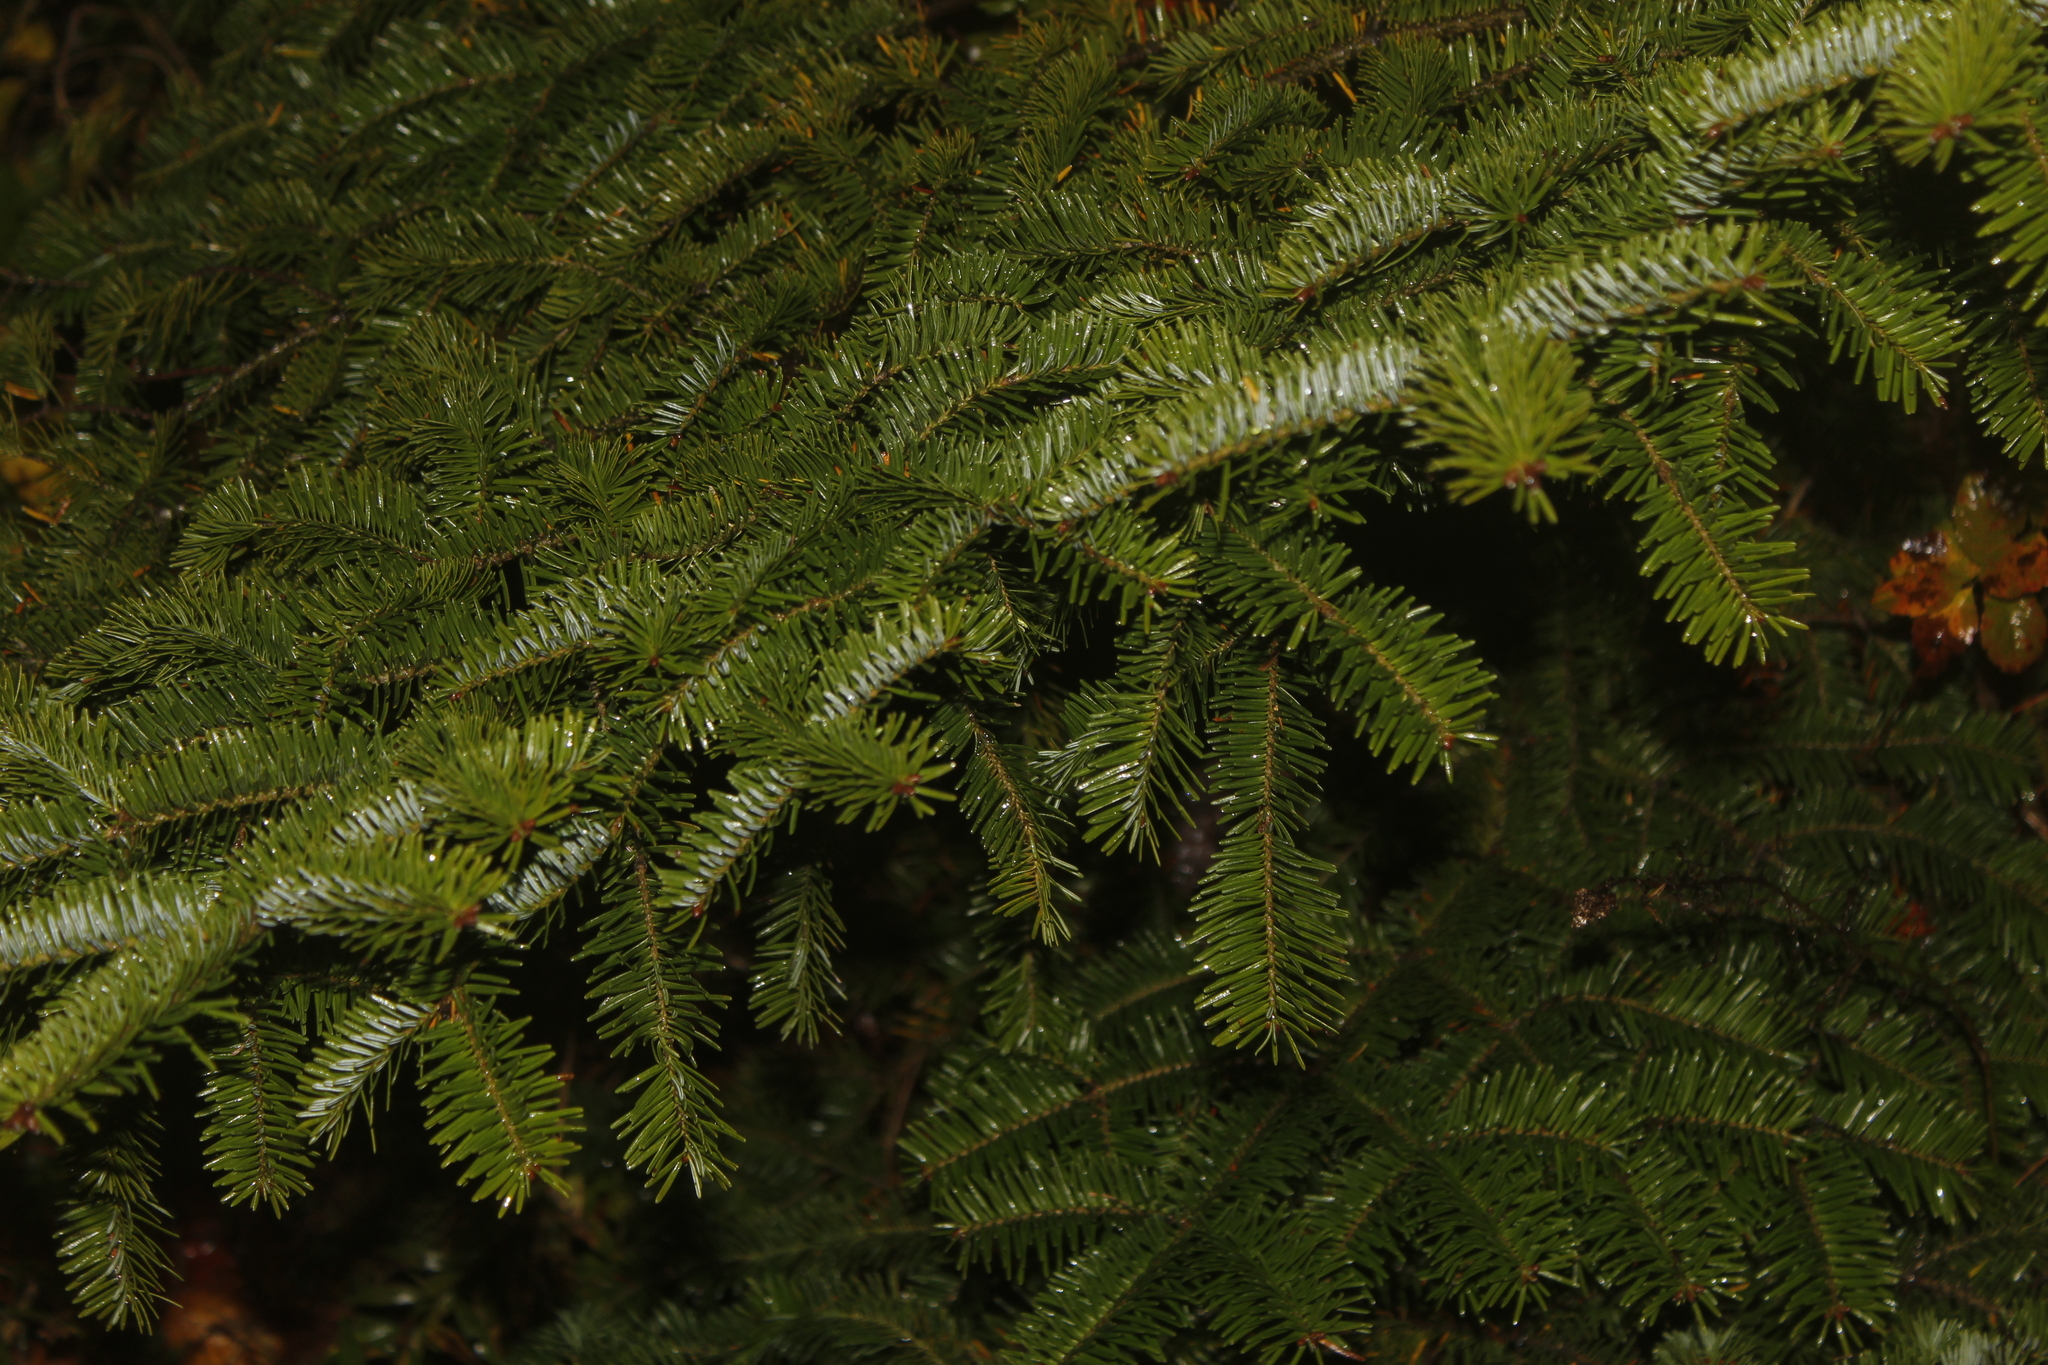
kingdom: Plantae
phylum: Tracheophyta
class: Pinopsida
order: Pinales
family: Pinaceae
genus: Abies
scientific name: Abies balsamea
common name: Balsam fir
